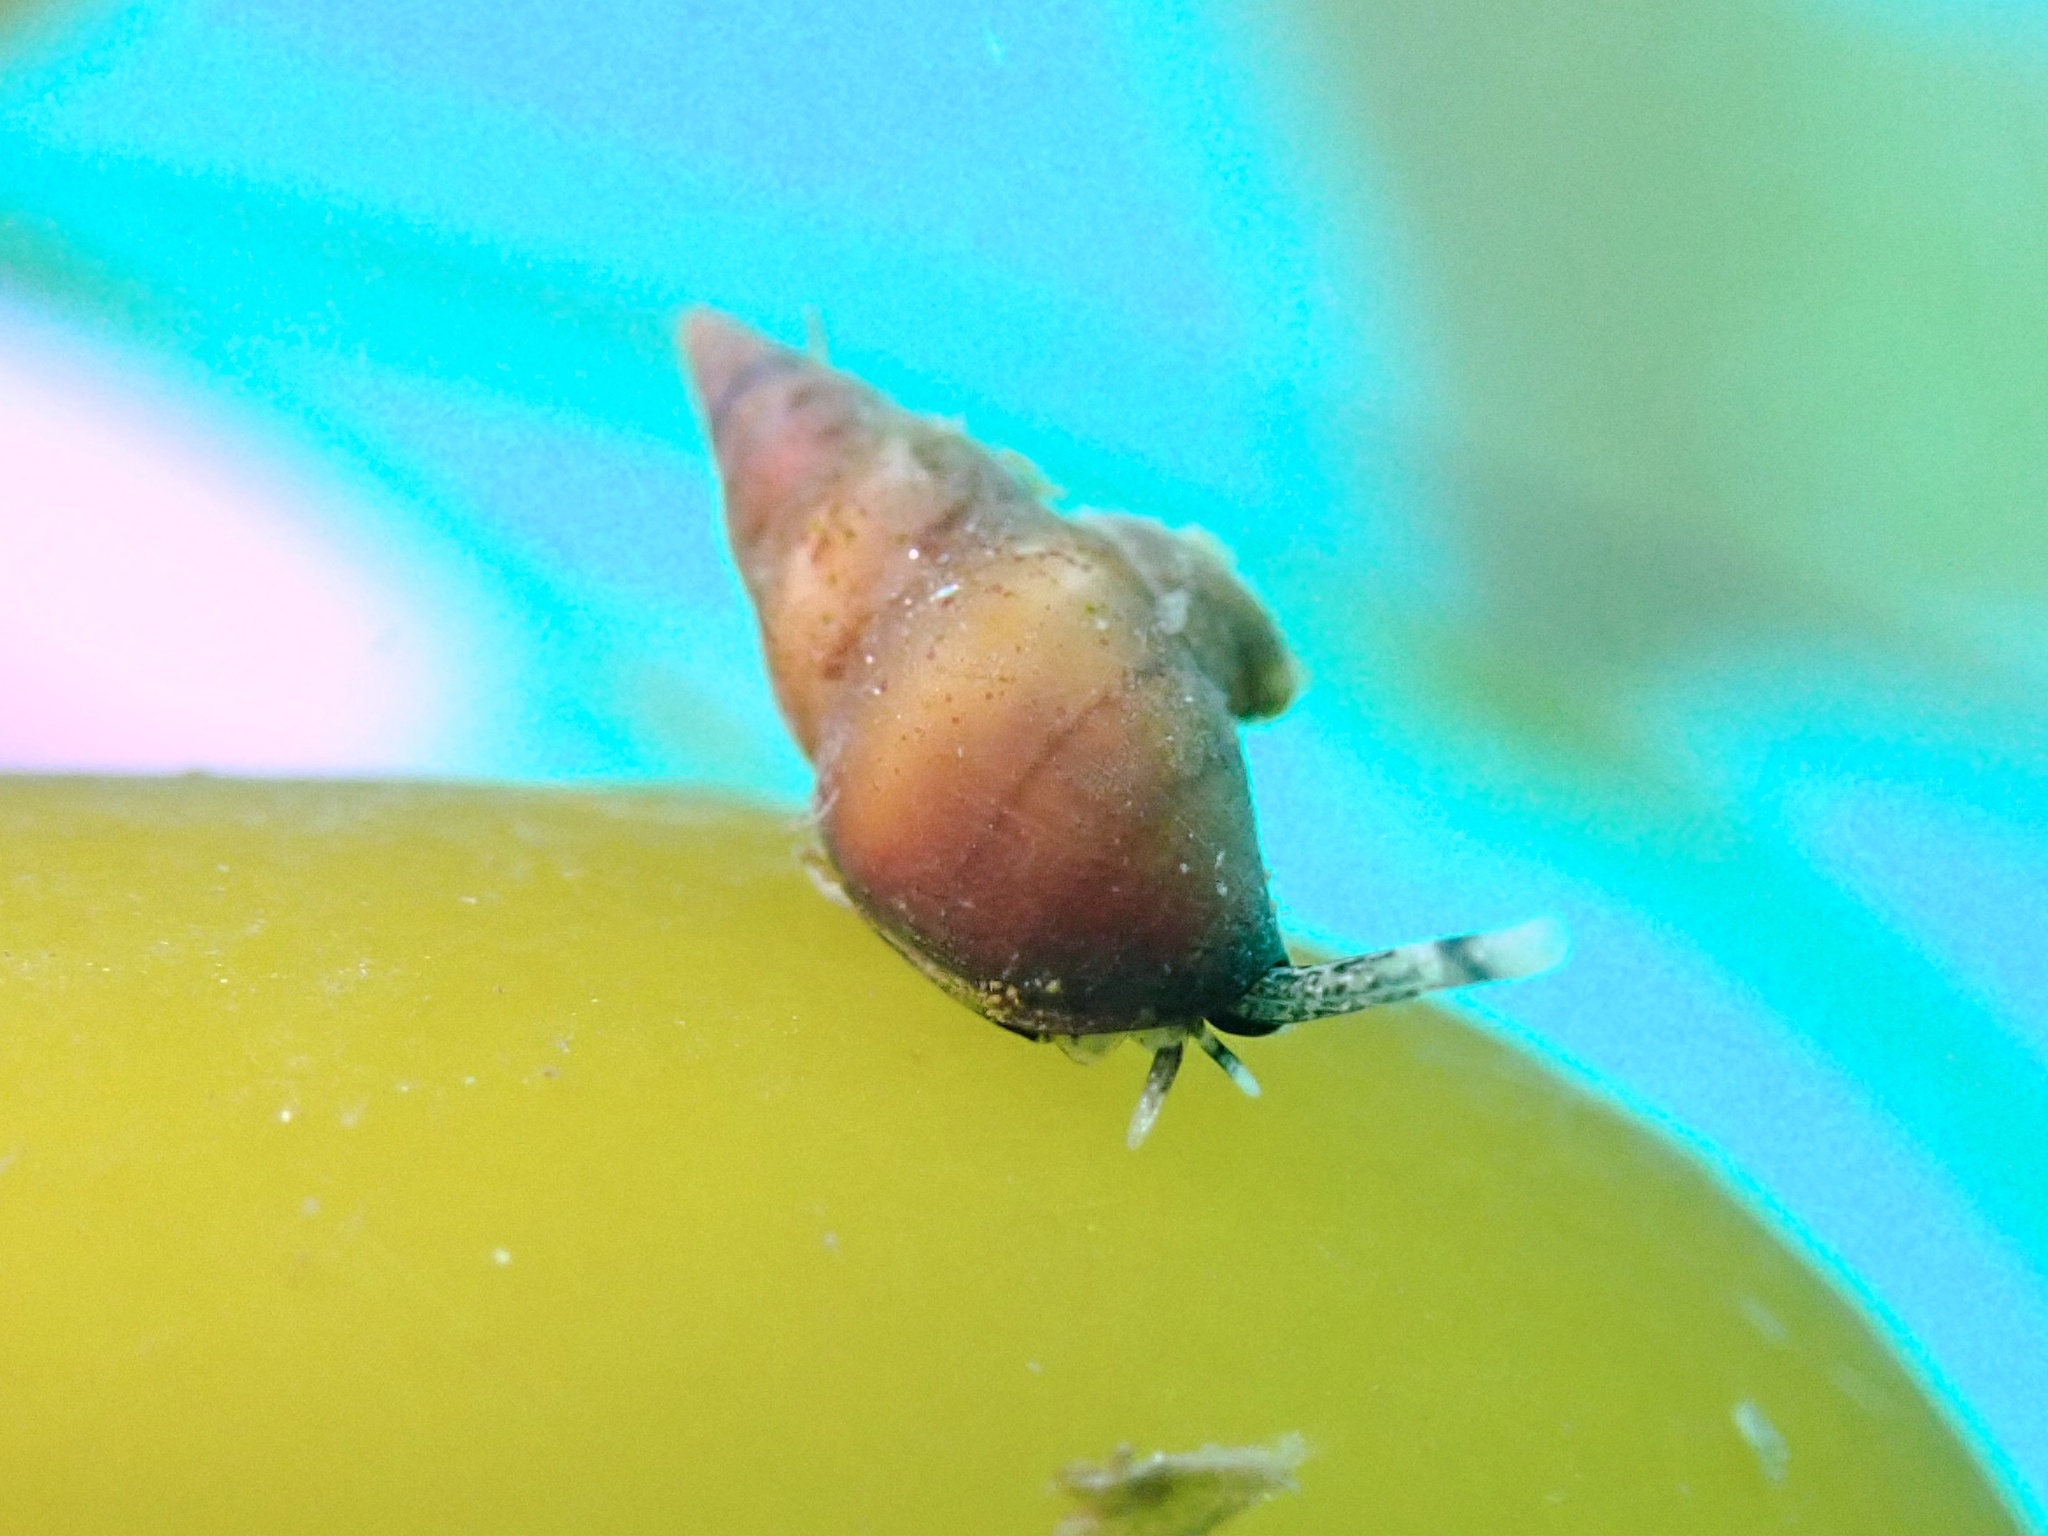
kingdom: Animalia
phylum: Mollusca
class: Gastropoda
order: Neogastropoda
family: Columbellidae
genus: Alia
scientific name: Alia carinata
